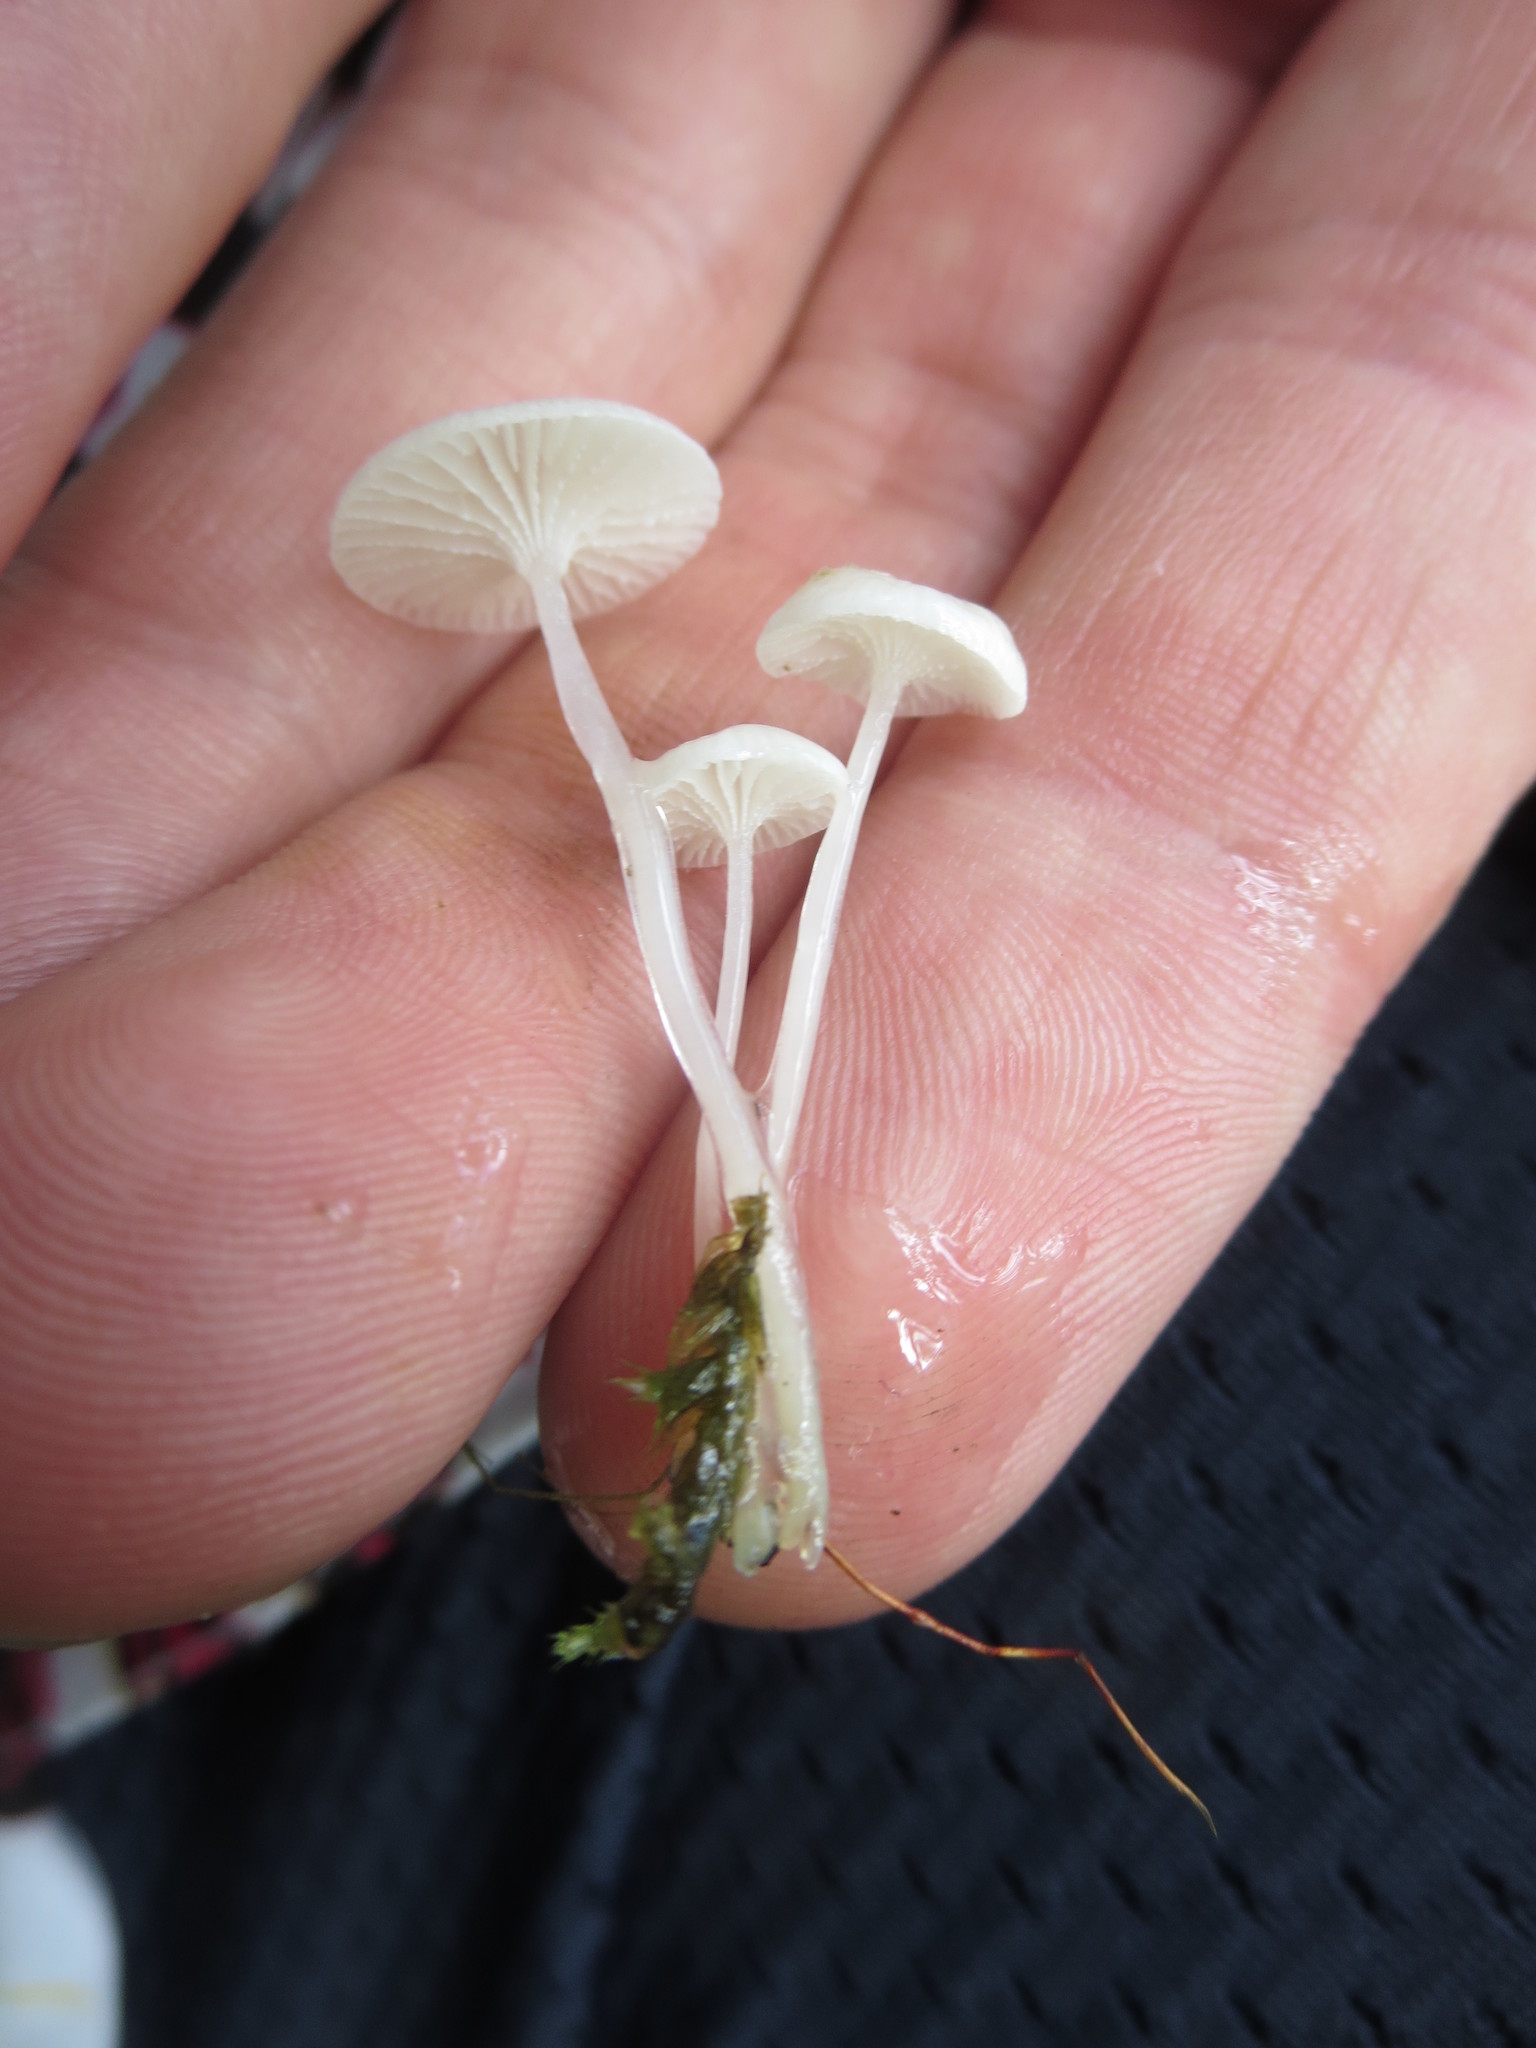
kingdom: Fungi
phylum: Basidiomycota
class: Agaricomycetes
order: Agaricales
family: Mycenaceae
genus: Resinomycena
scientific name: Resinomycena acadiensis
